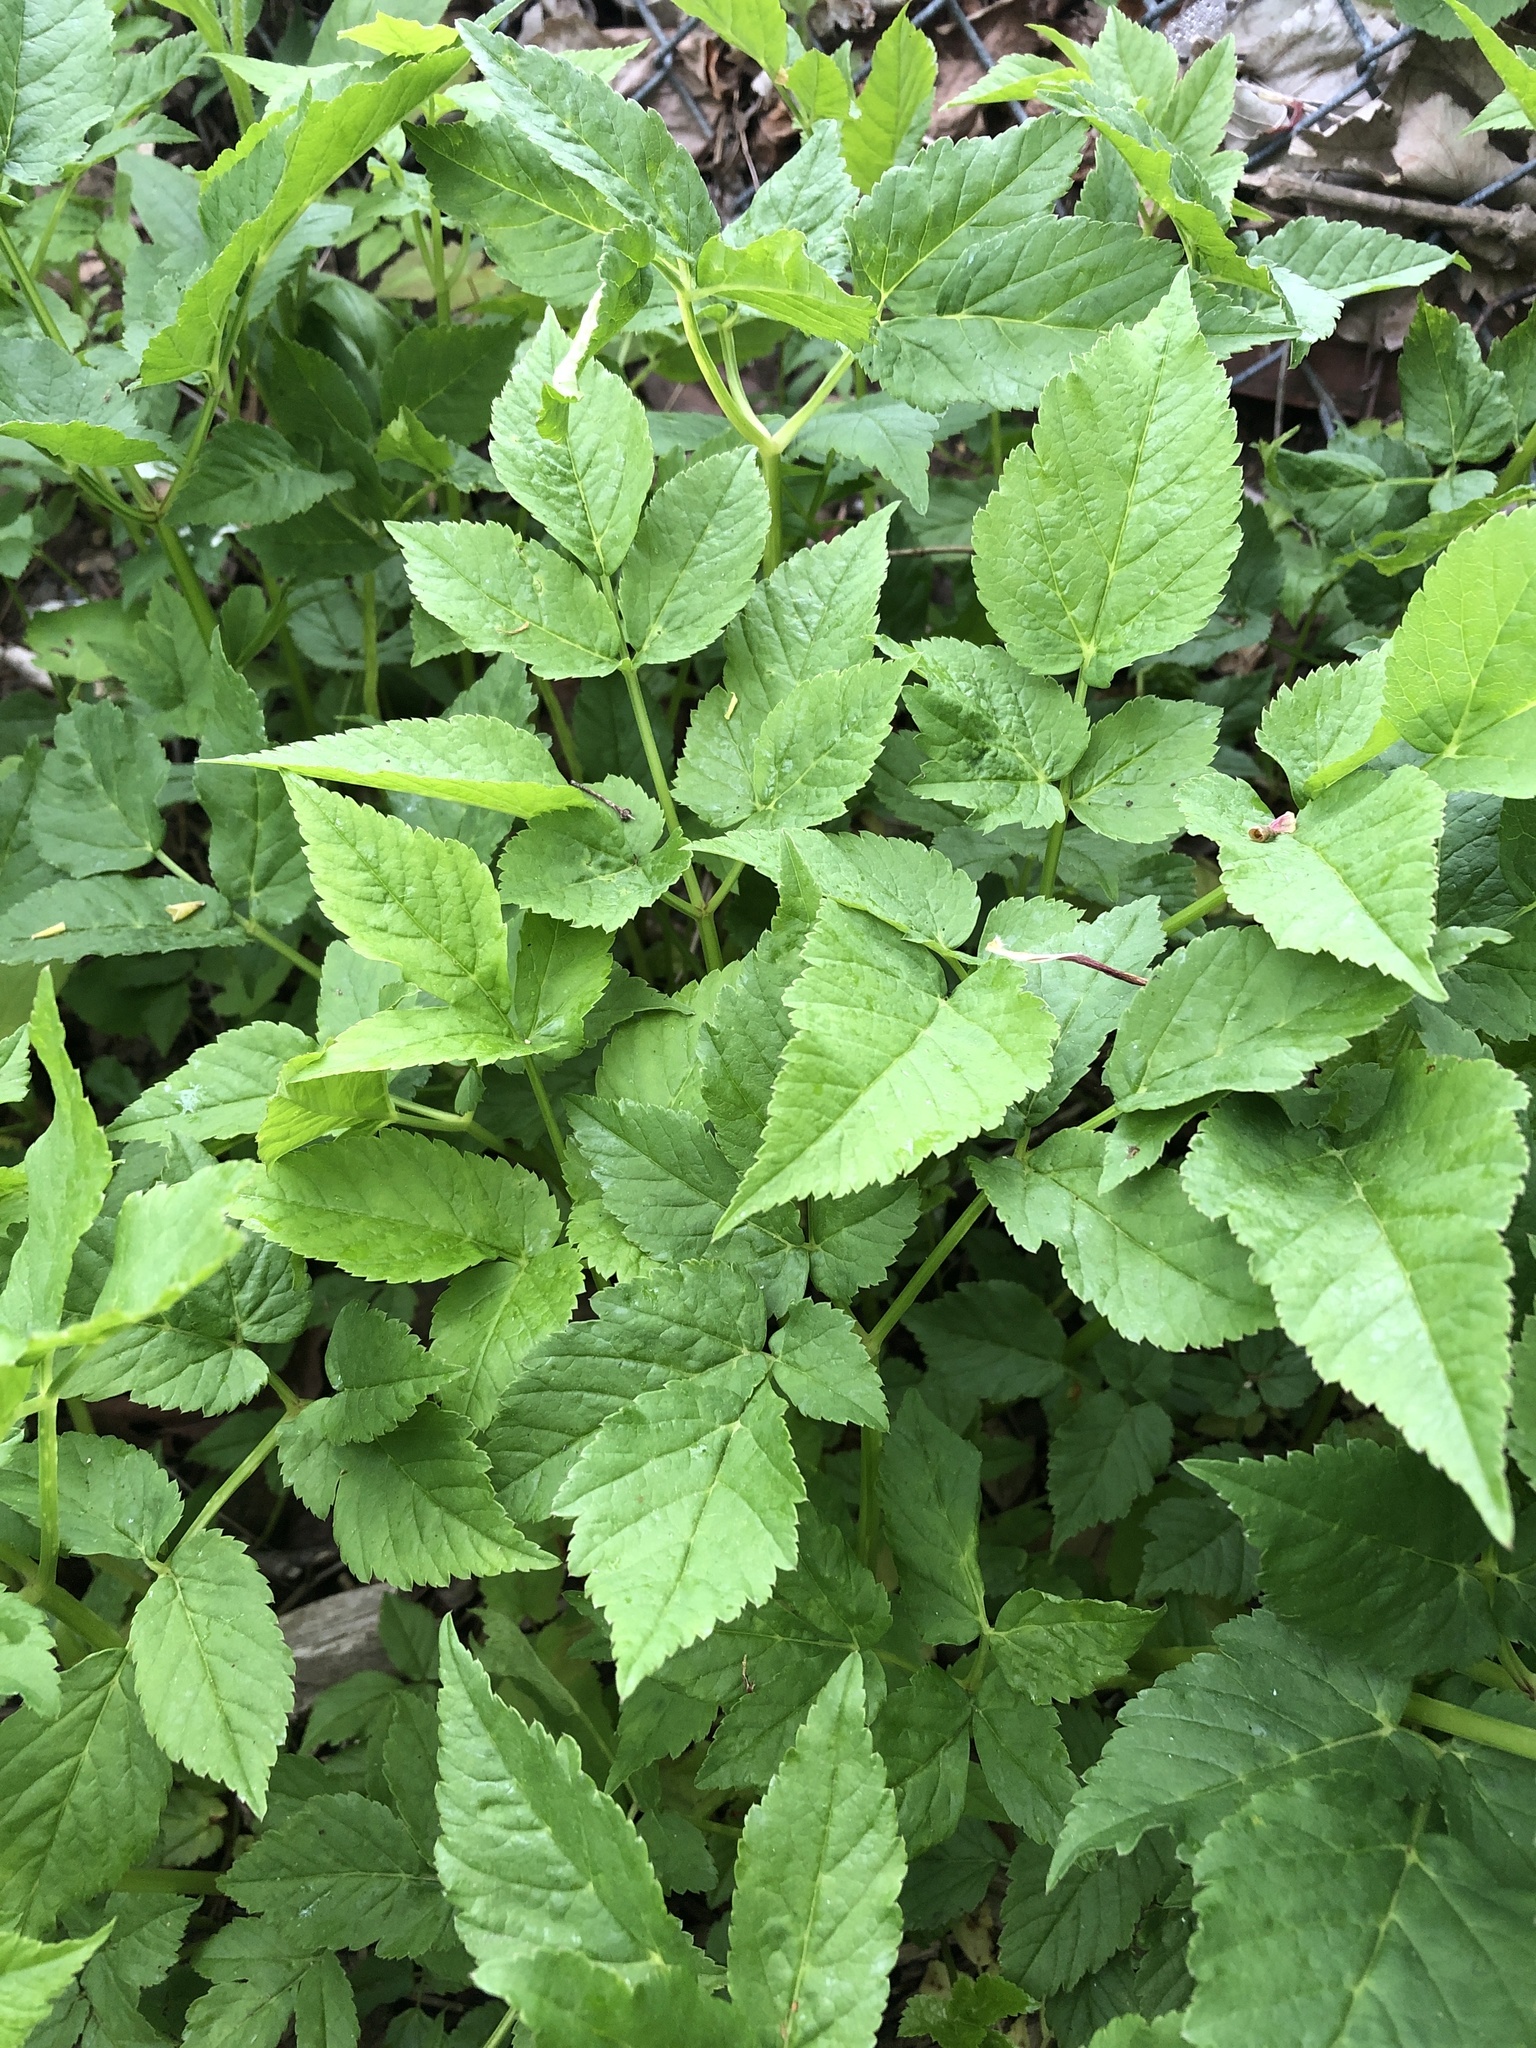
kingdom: Plantae
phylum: Tracheophyta
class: Magnoliopsida
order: Apiales
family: Apiaceae
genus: Aegopodium
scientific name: Aegopodium podagraria
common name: Ground-elder
